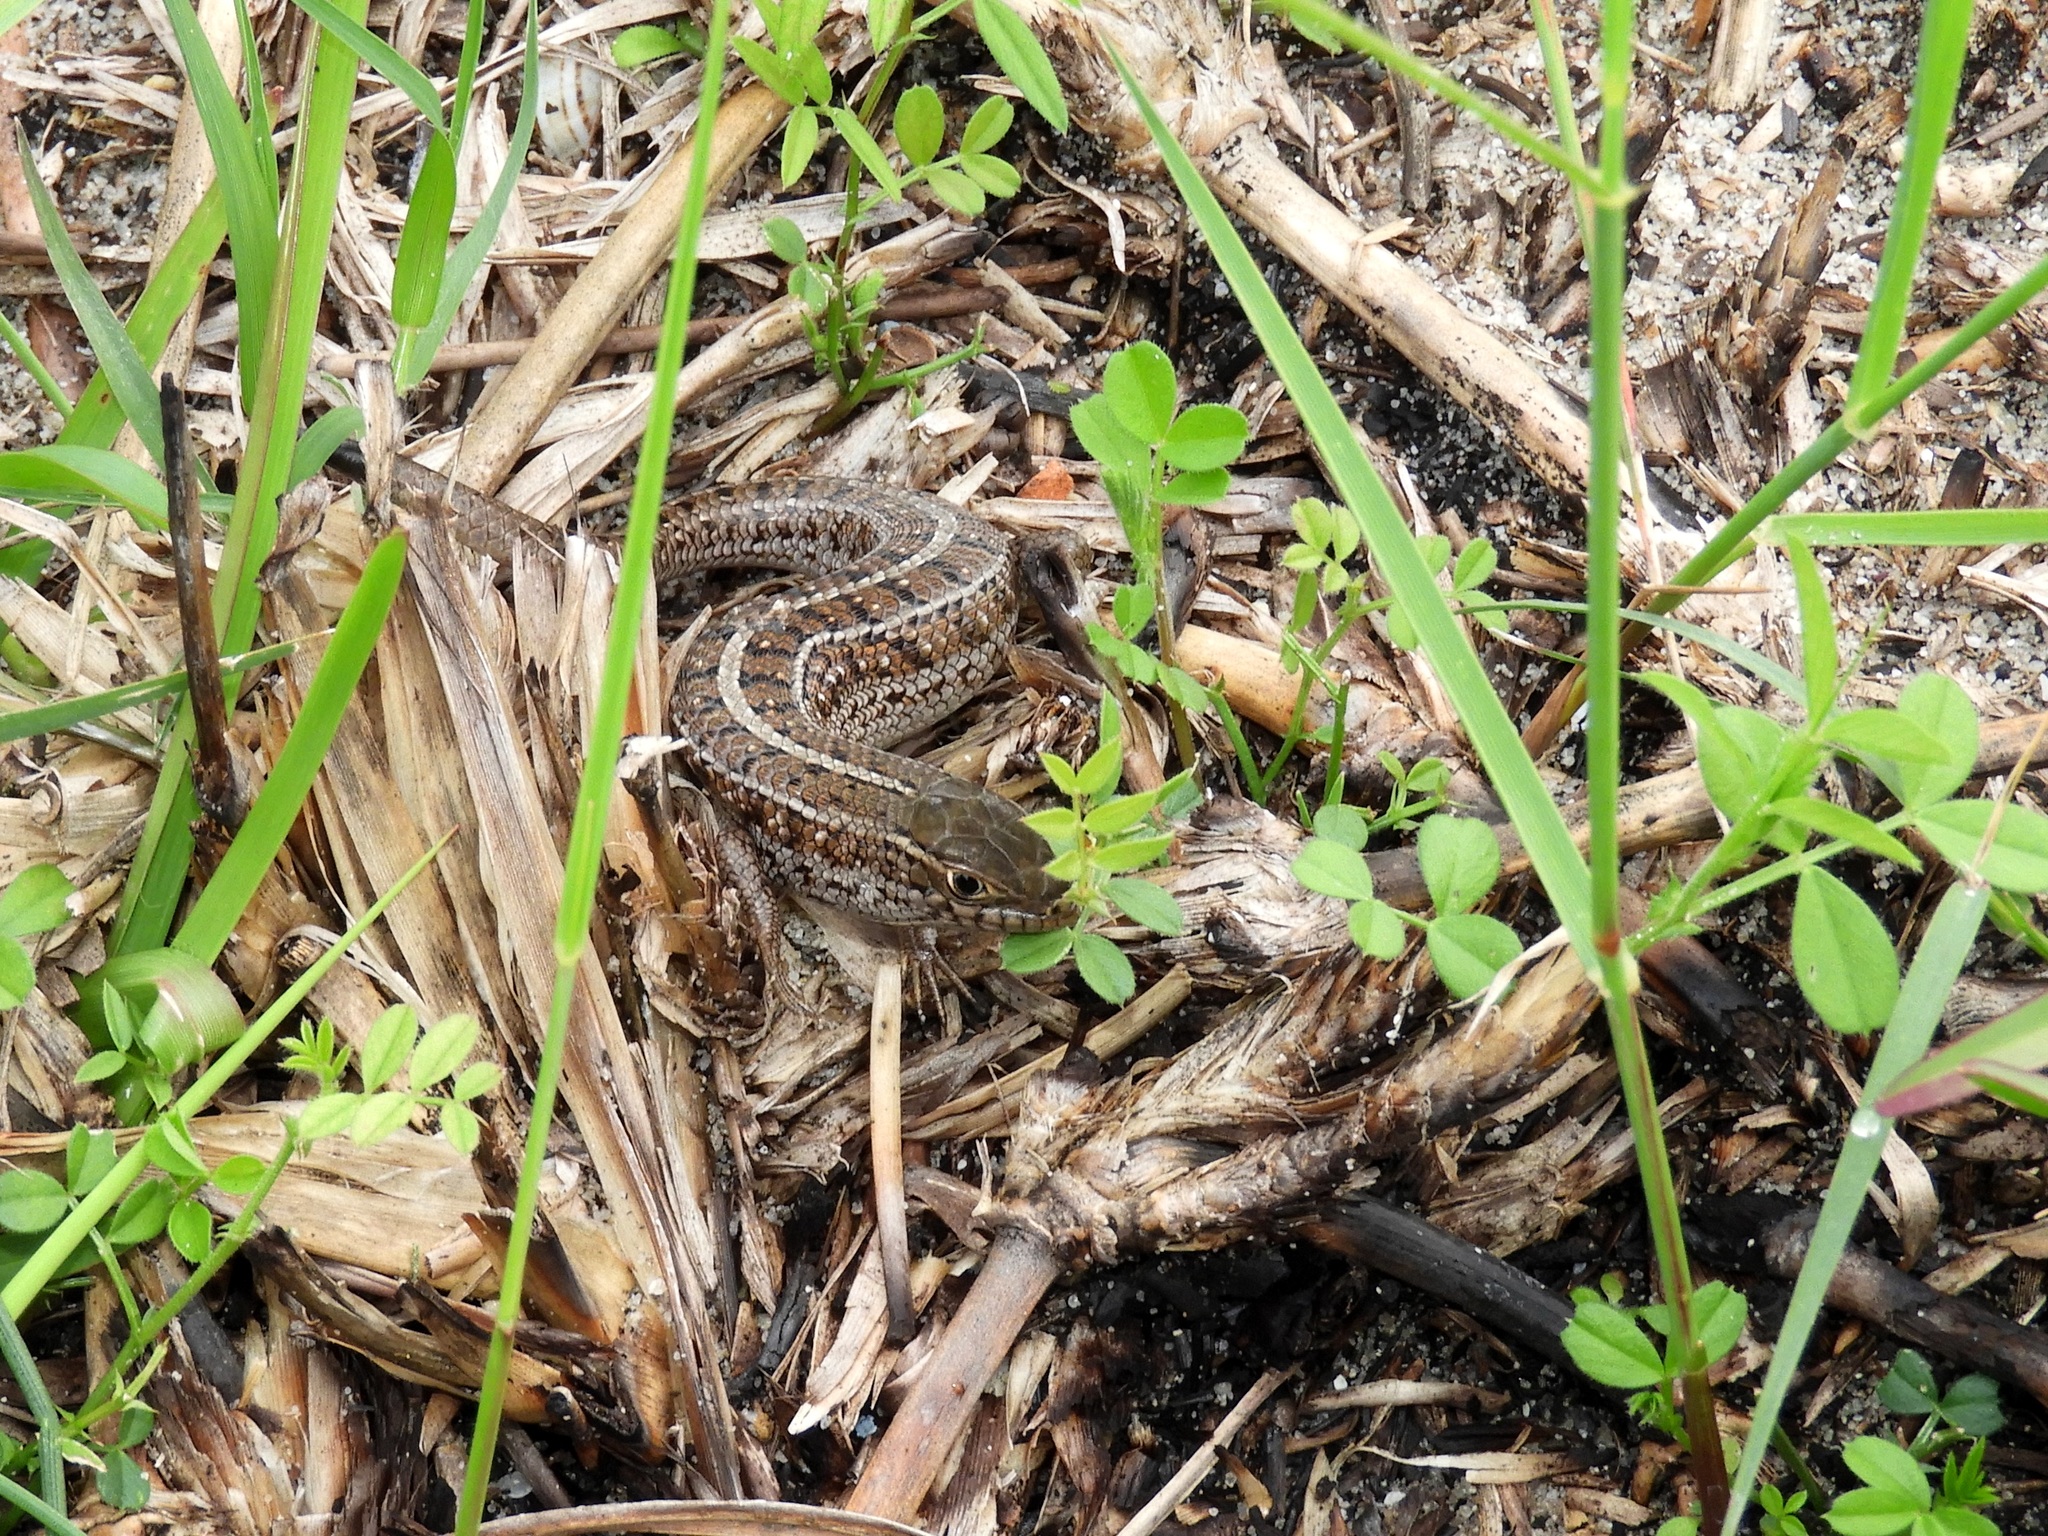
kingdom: Animalia
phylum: Chordata
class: Squamata
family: Scincidae
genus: Trachylepis
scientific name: Trachylepis capensis
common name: Cape skink
